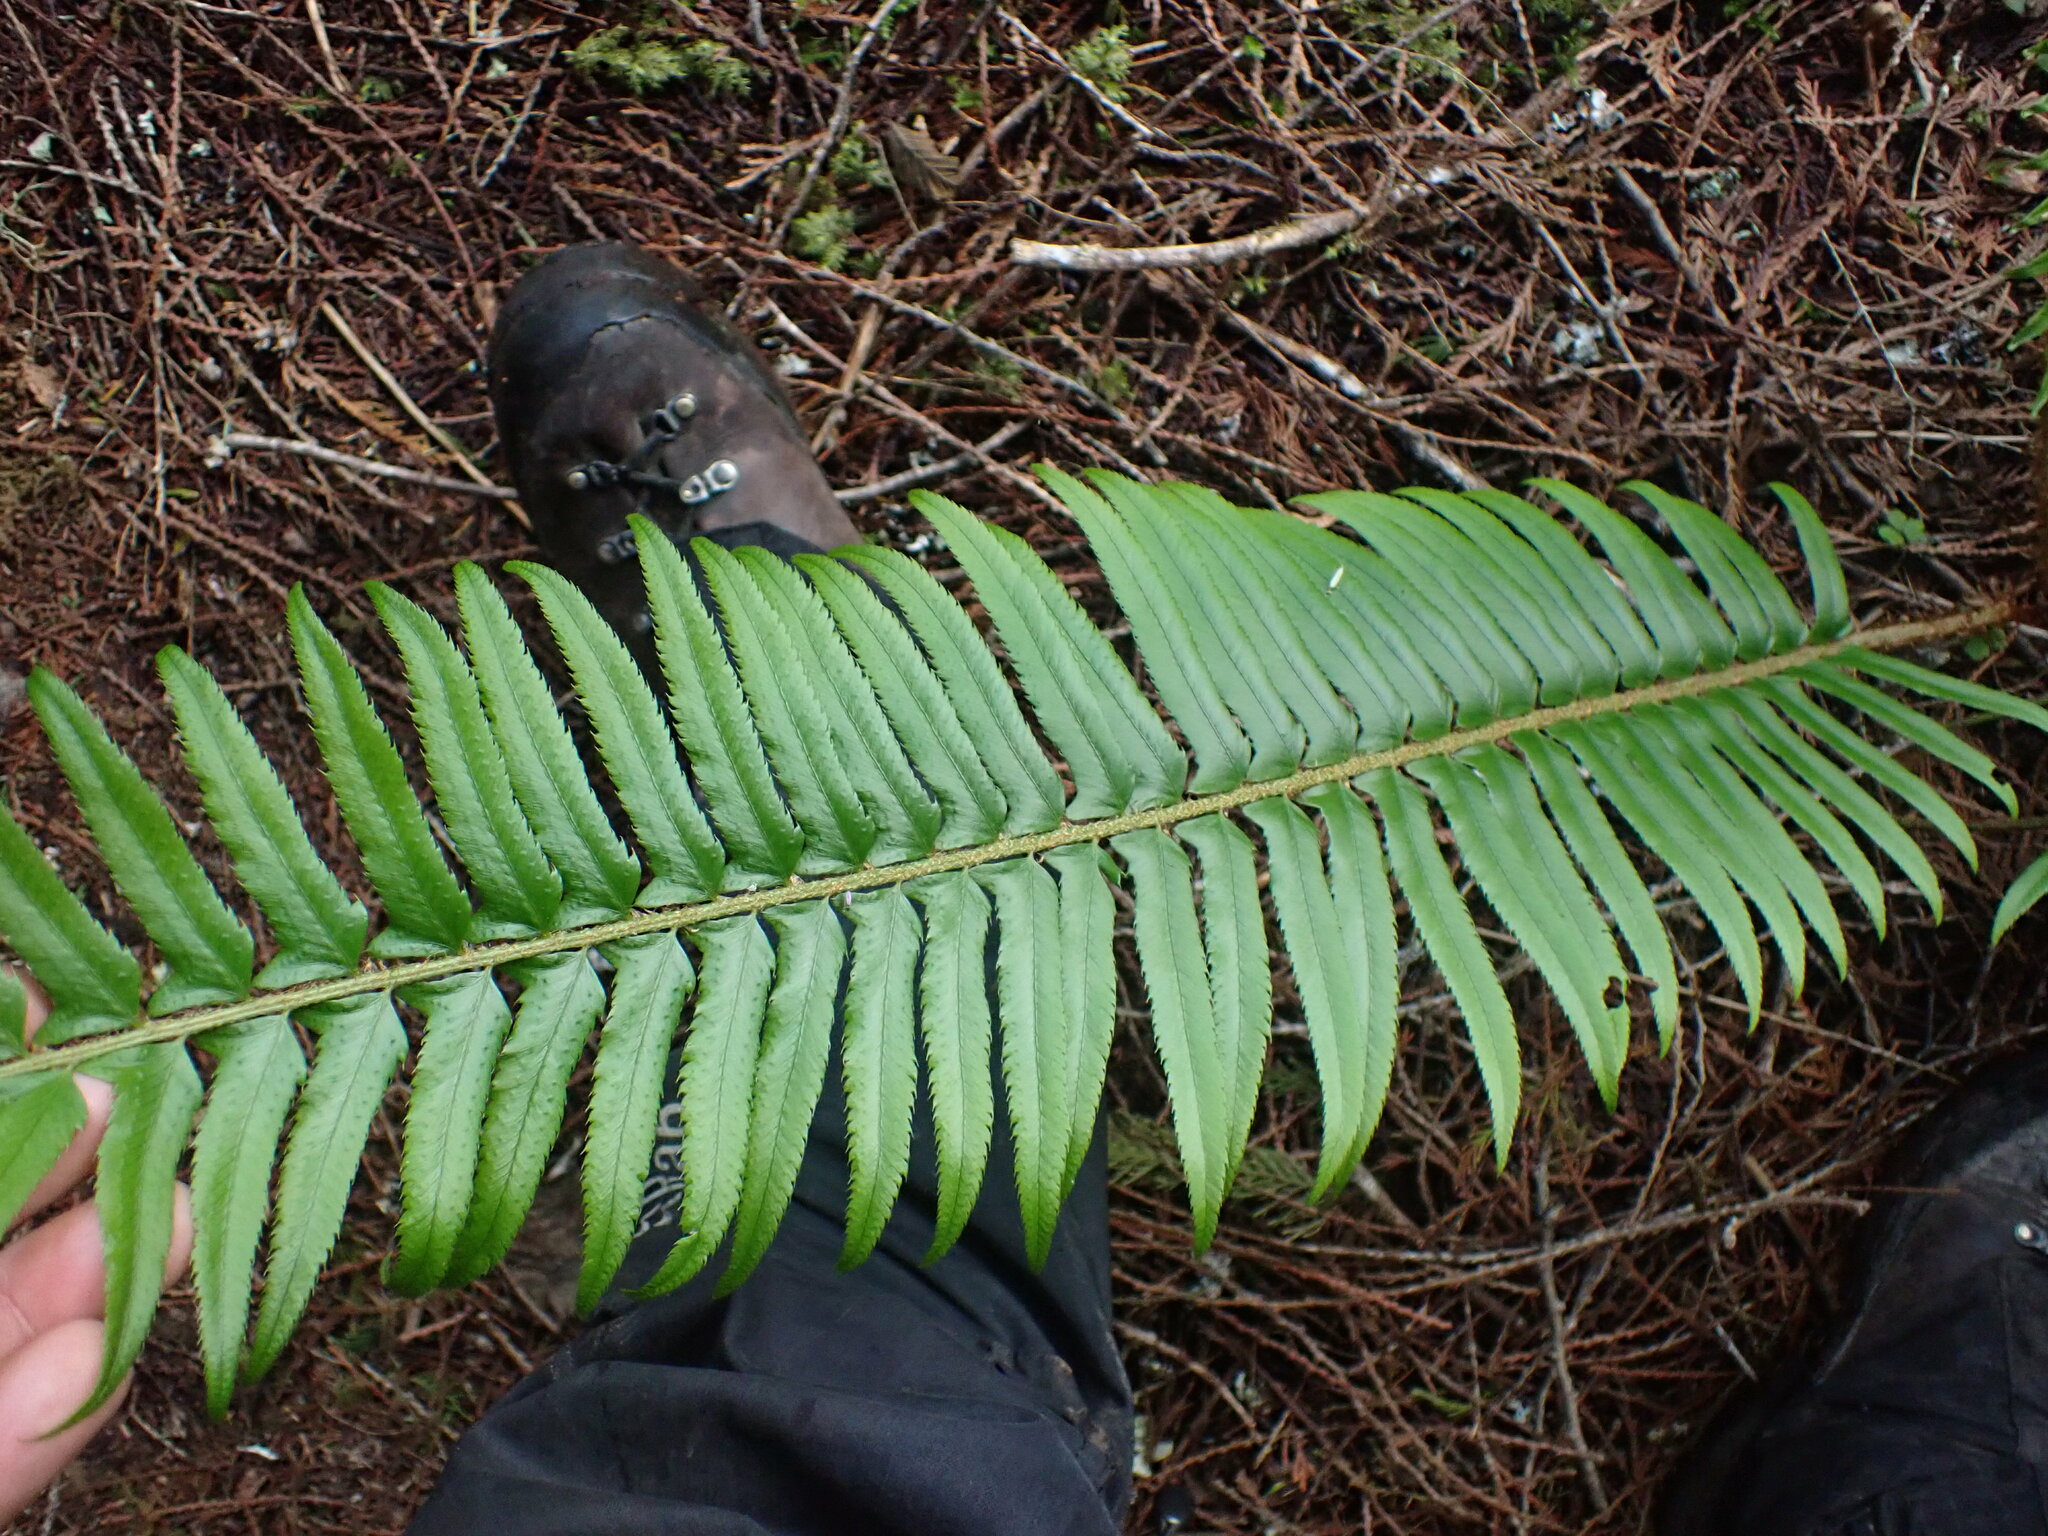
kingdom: Plantae
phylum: Tracheophyta
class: Polypodiopsida
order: Polypodiales
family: Dryopteridaceae
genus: Polystichum
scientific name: Polystichum munitum
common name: Western sword-fern
